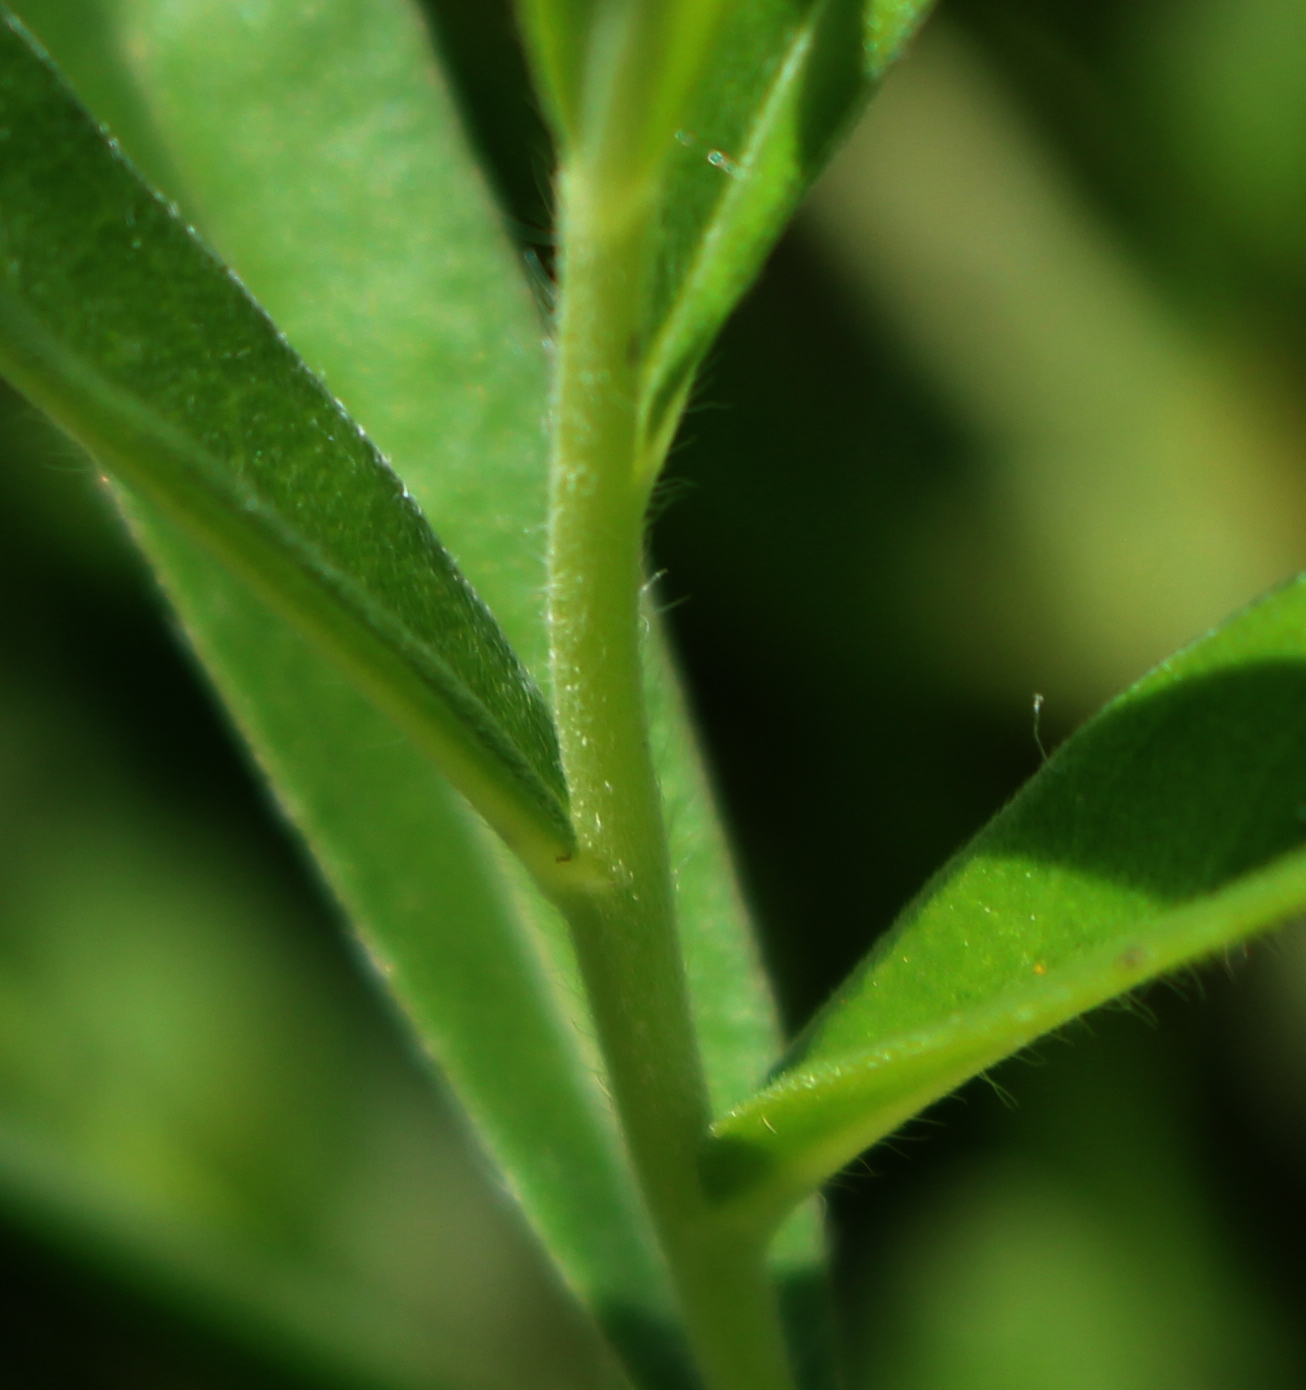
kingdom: Plantae
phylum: Tracheophyta
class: Magnoliopsida
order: Boraginales
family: Boraginaceae
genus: Lithospermum
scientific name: Lithospermum canescens
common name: Hoary puccoon
